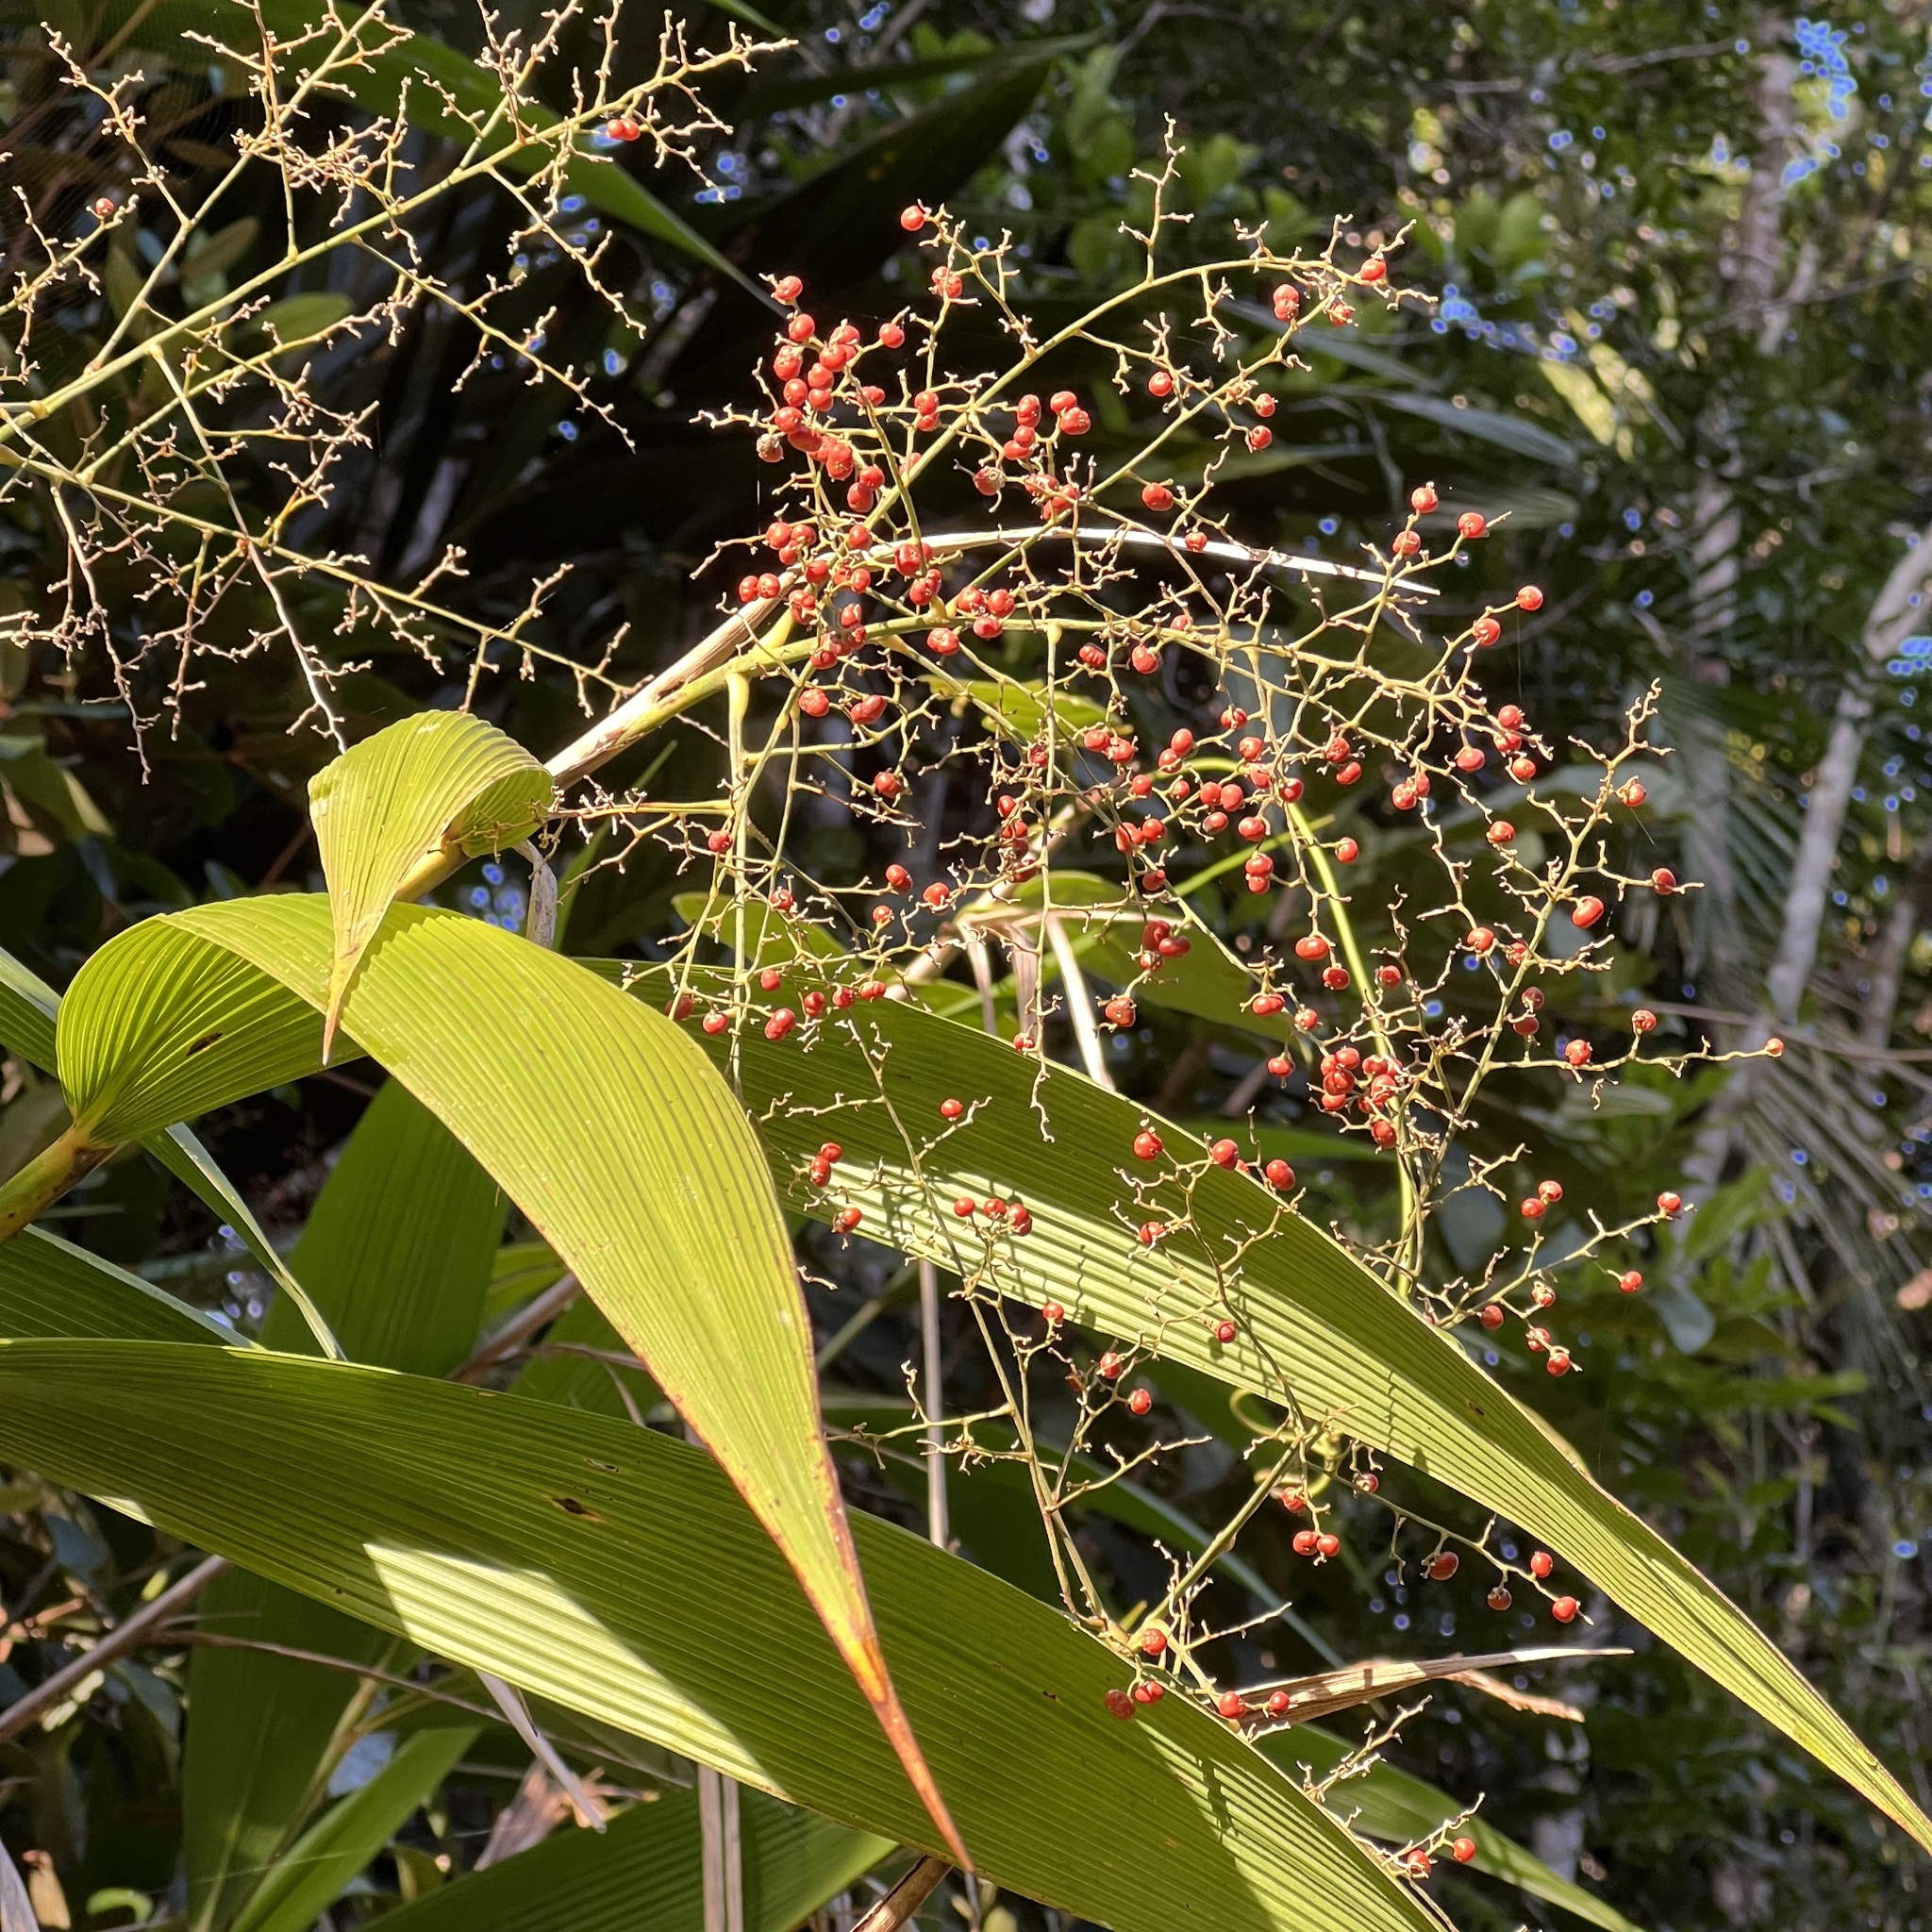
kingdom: Plantae
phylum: Tracheophyta
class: Liliopsida
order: Poales
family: Joinvilleaceae
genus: Joinvillea
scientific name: Joinvillea plicata
